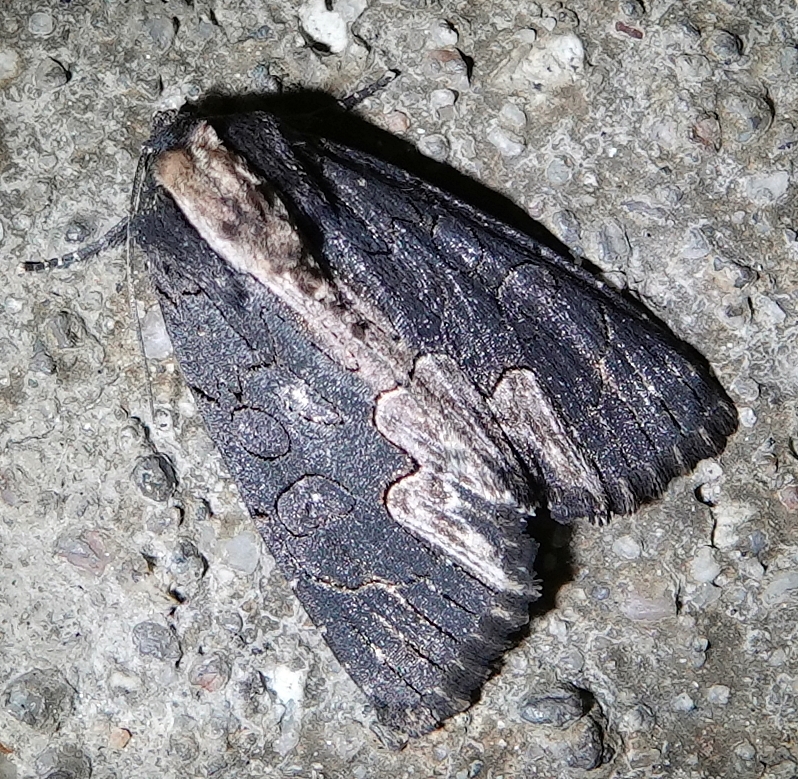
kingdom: Animalia
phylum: Arthropoda
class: Insecta
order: Lepidoptera
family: Noctuidae
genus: Dypterygia
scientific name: Dypterygia rozmani
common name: American bird's-wing
